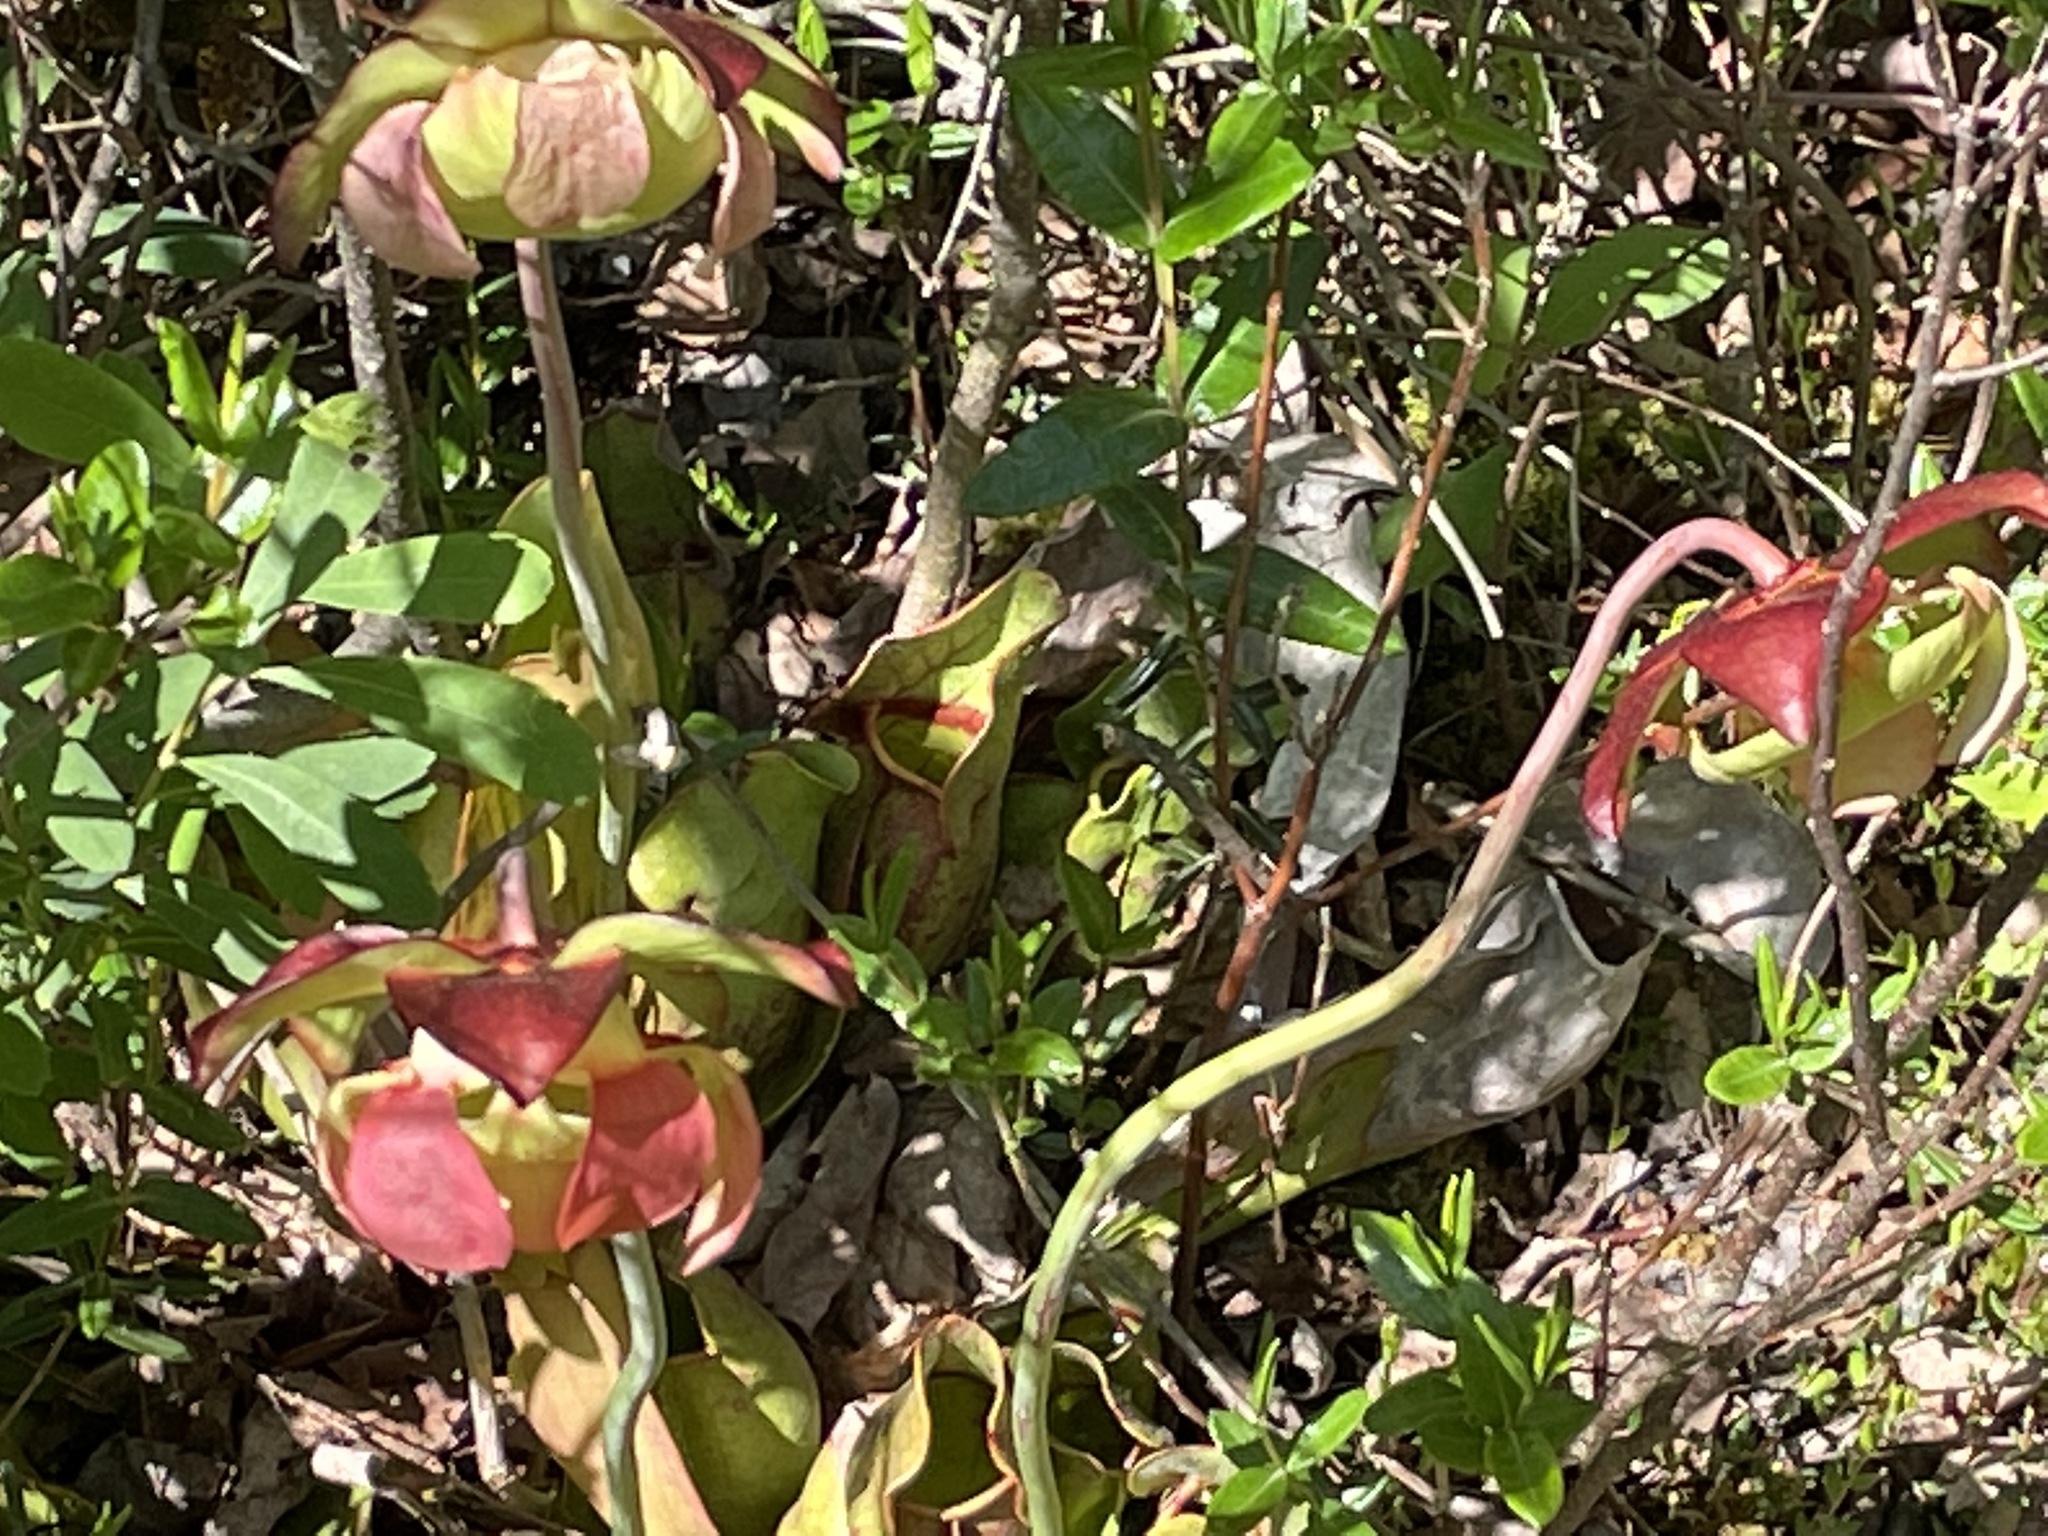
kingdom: Plantae
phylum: Tracheophyta
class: Magnoliopsida
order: Ericales
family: Sarraceniaceae
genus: Sarracenia
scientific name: Sarracenia purpurea
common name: Pitcherplant
